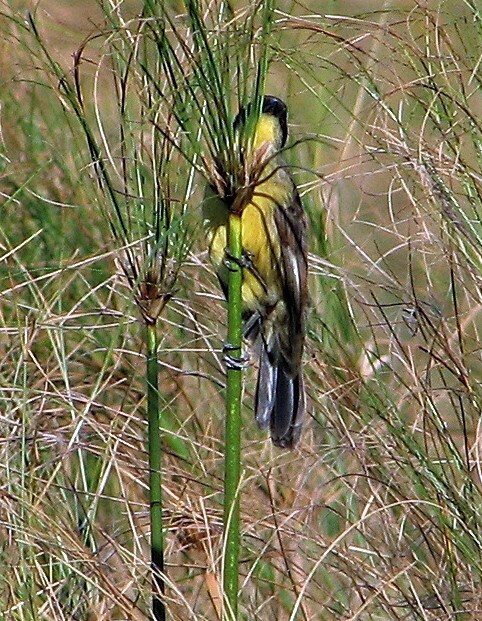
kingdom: Animalia
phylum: Chordata
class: Aves
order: Passeriformes
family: Icteridae
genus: Agelasticus
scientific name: Agelasticus cyanopus
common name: Unicolored blackbird
